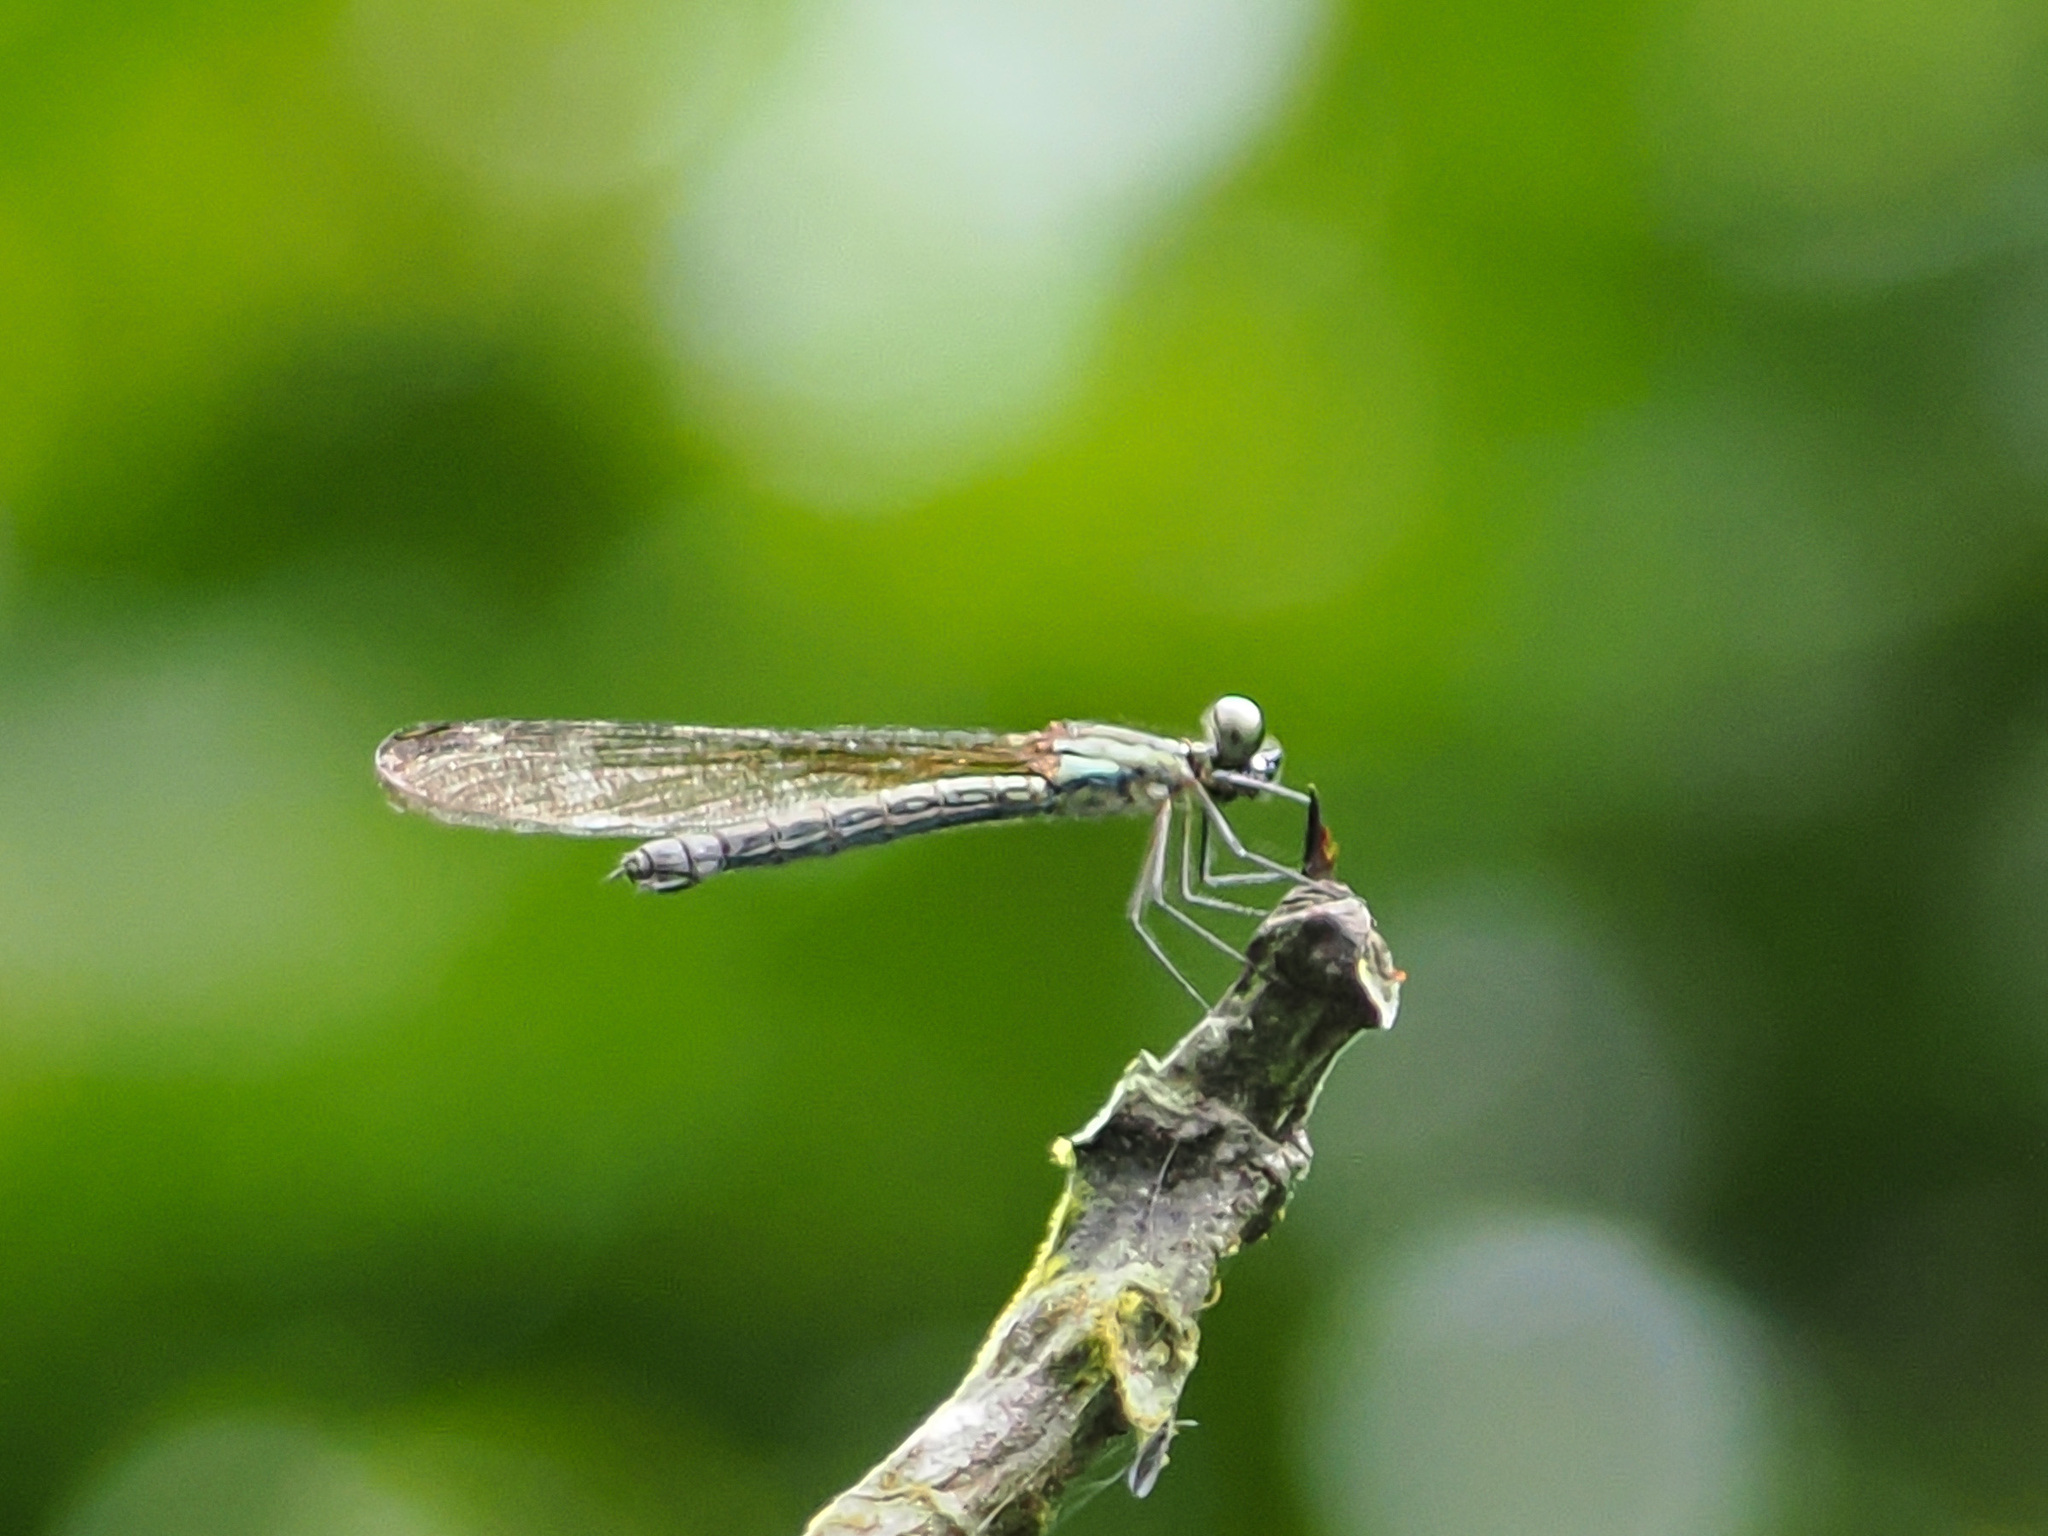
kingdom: Animalia
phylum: Arthropoda
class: Insecta
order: Odonata
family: Chlorocyphidae
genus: Heliocypha
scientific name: Heliocypha angusta
